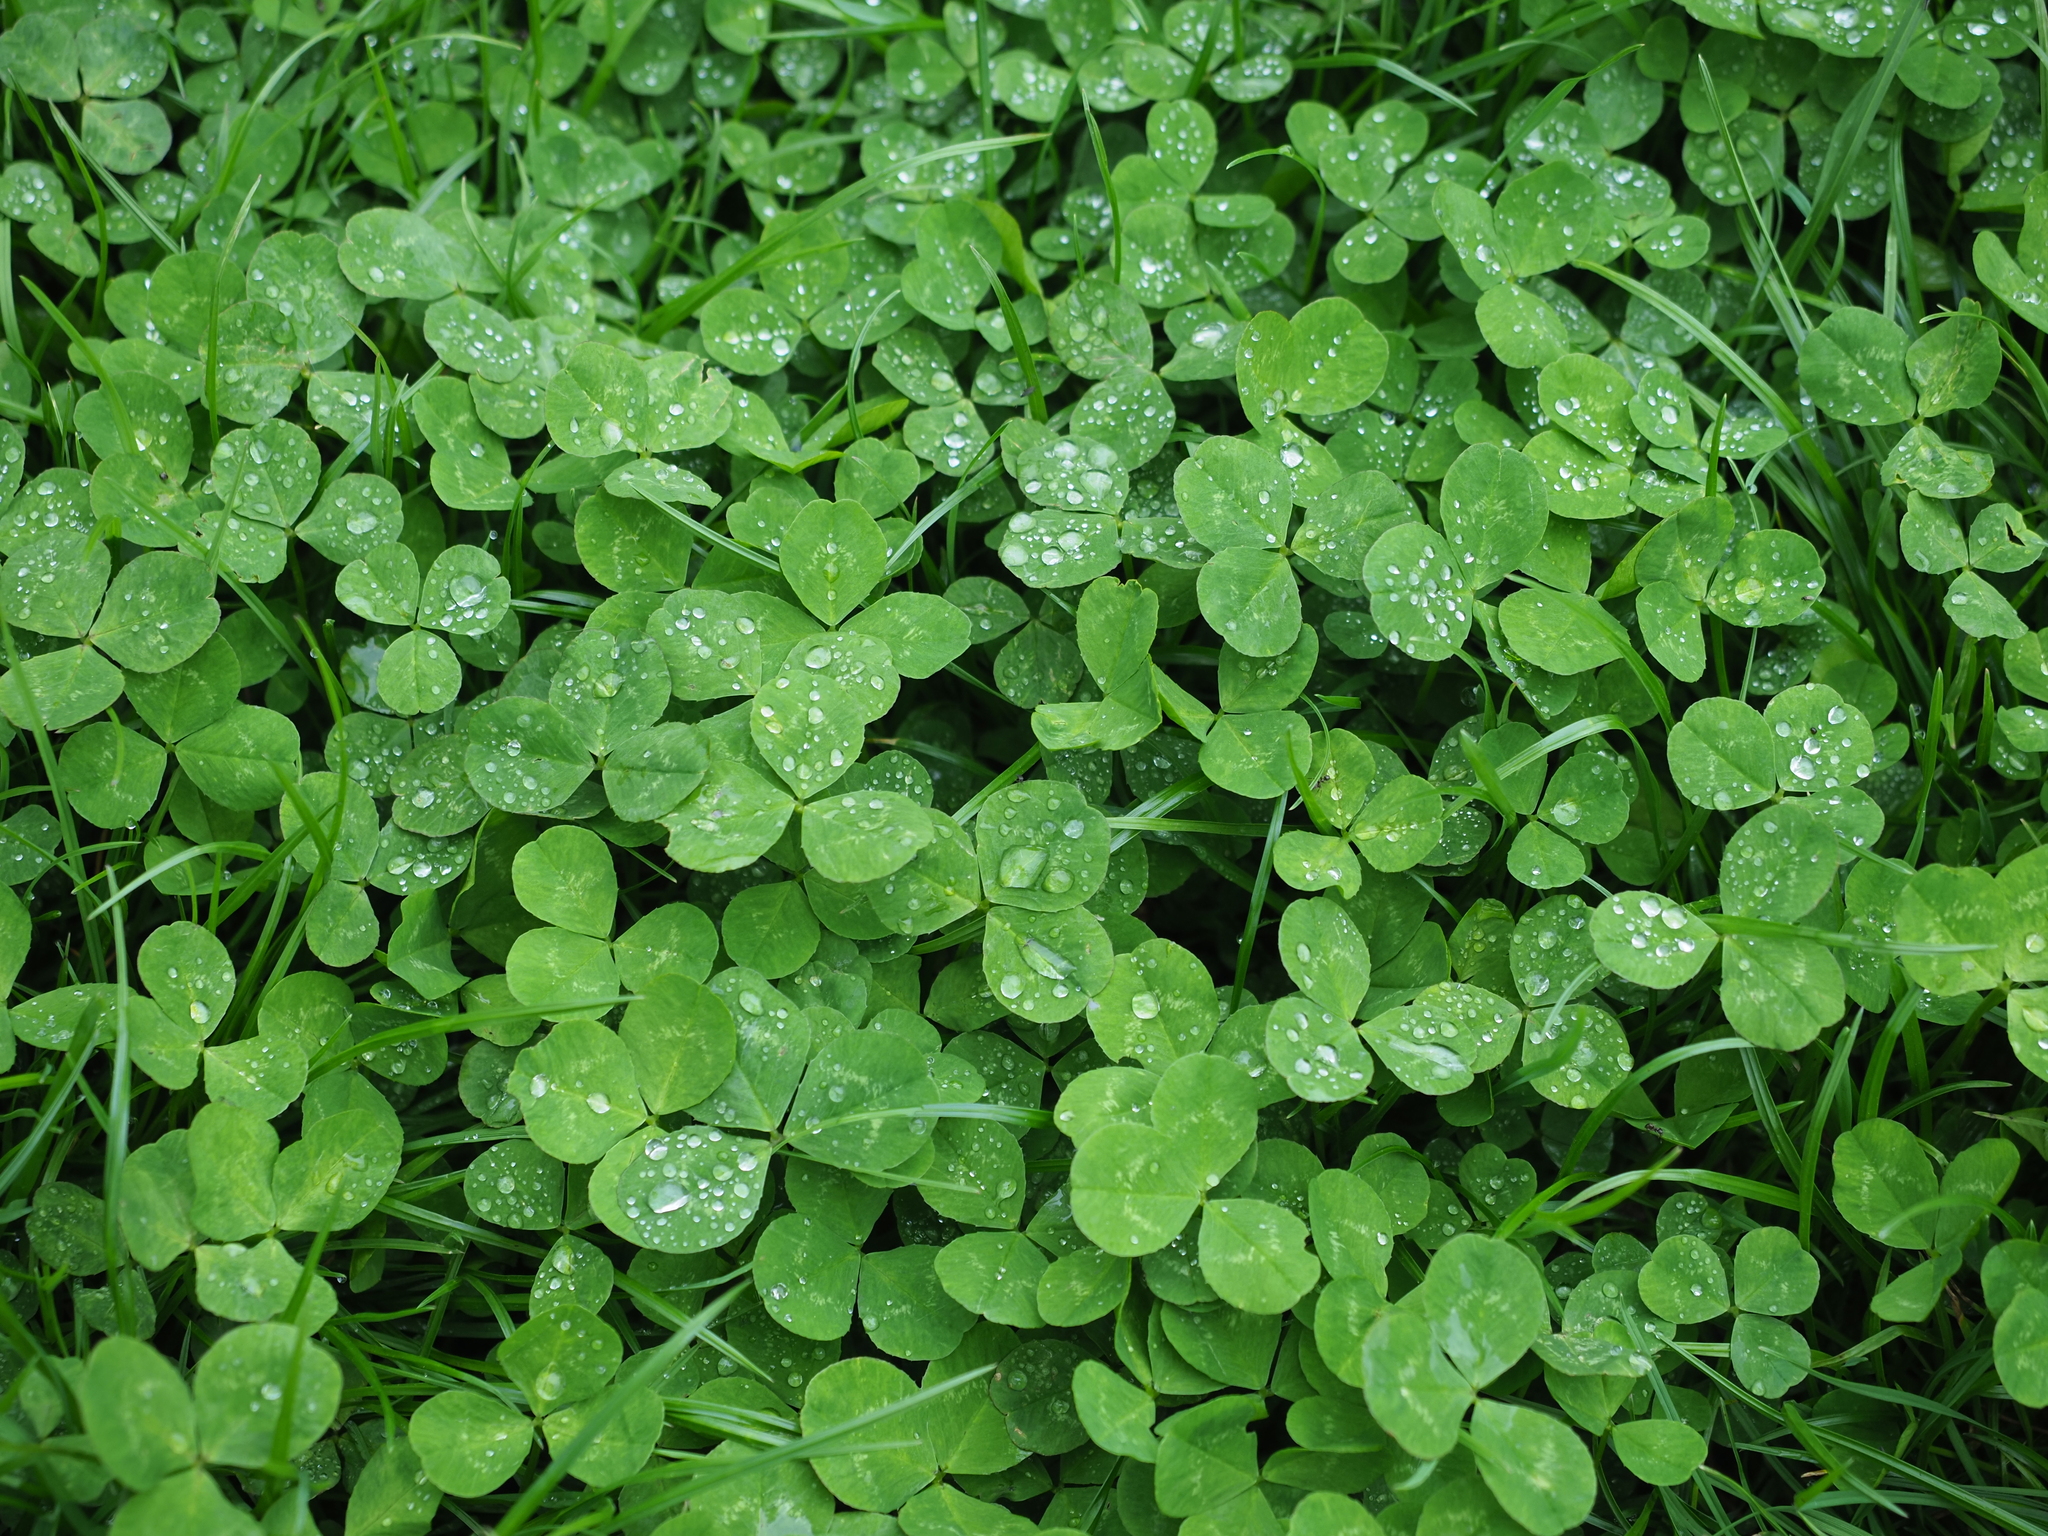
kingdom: Plantae
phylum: Tracheophyta
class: Magnoliopsida
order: Fabales
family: Fabaceae
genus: Trifolium
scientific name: Trifolium repens
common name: White clover
